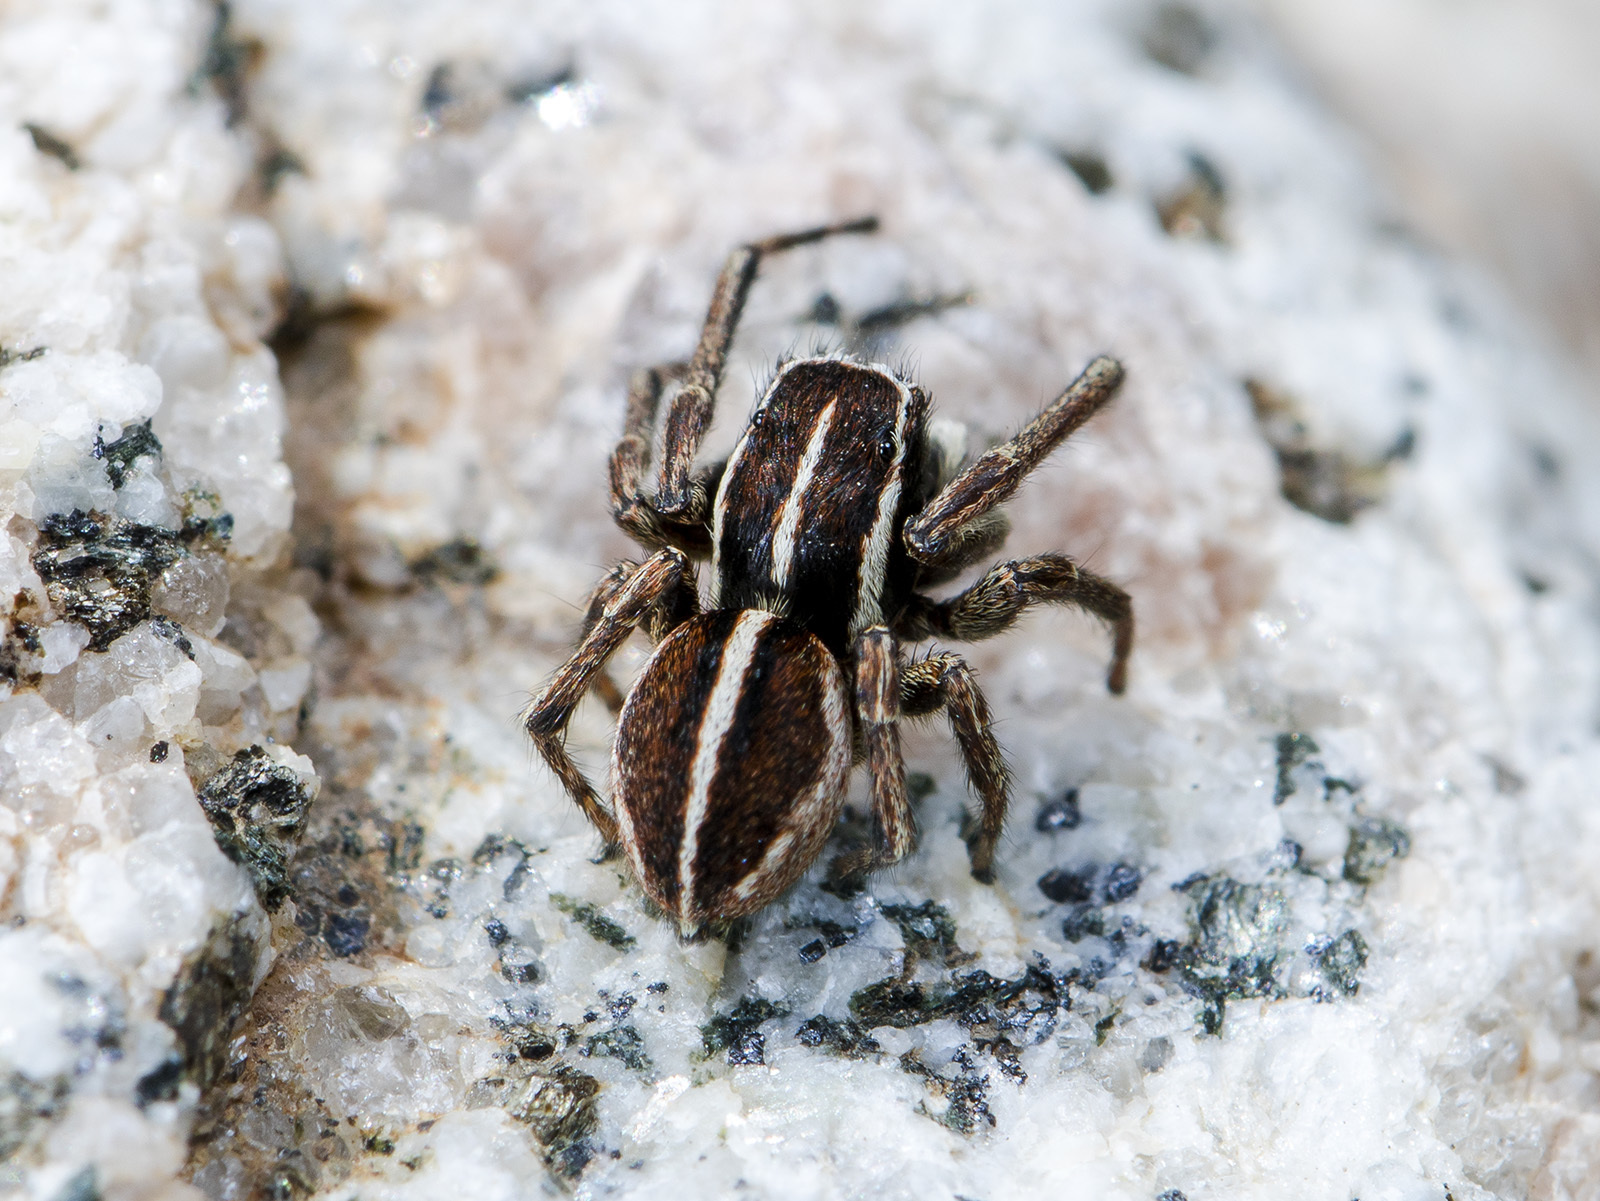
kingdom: Animalia
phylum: Arthropoda
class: Arachnida
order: Araneae
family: Salticidae
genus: Attulus
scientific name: Attulus talgarensis
